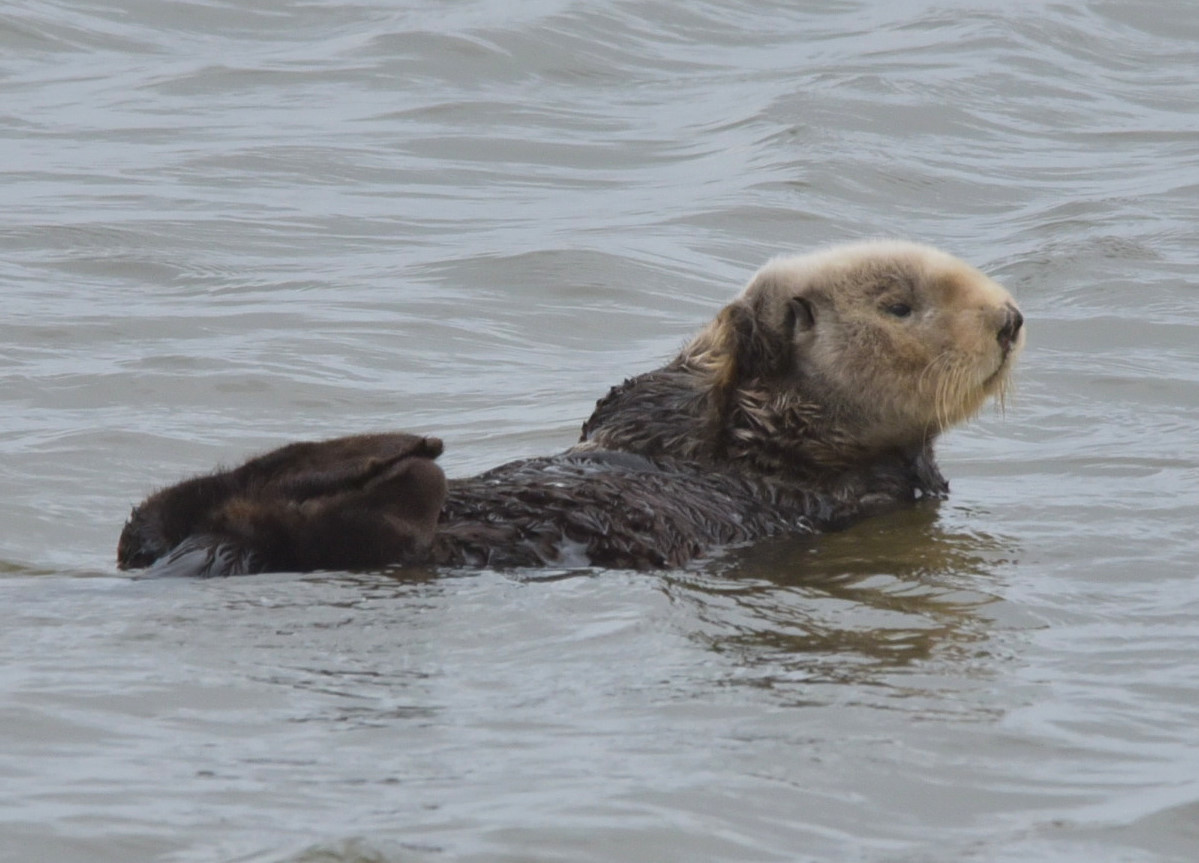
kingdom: Animalia
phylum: Chordata
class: Mammalia
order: Carnivora
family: Mustelidae
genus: Enhydra
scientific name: Enhydra lutris
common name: Sea otter
